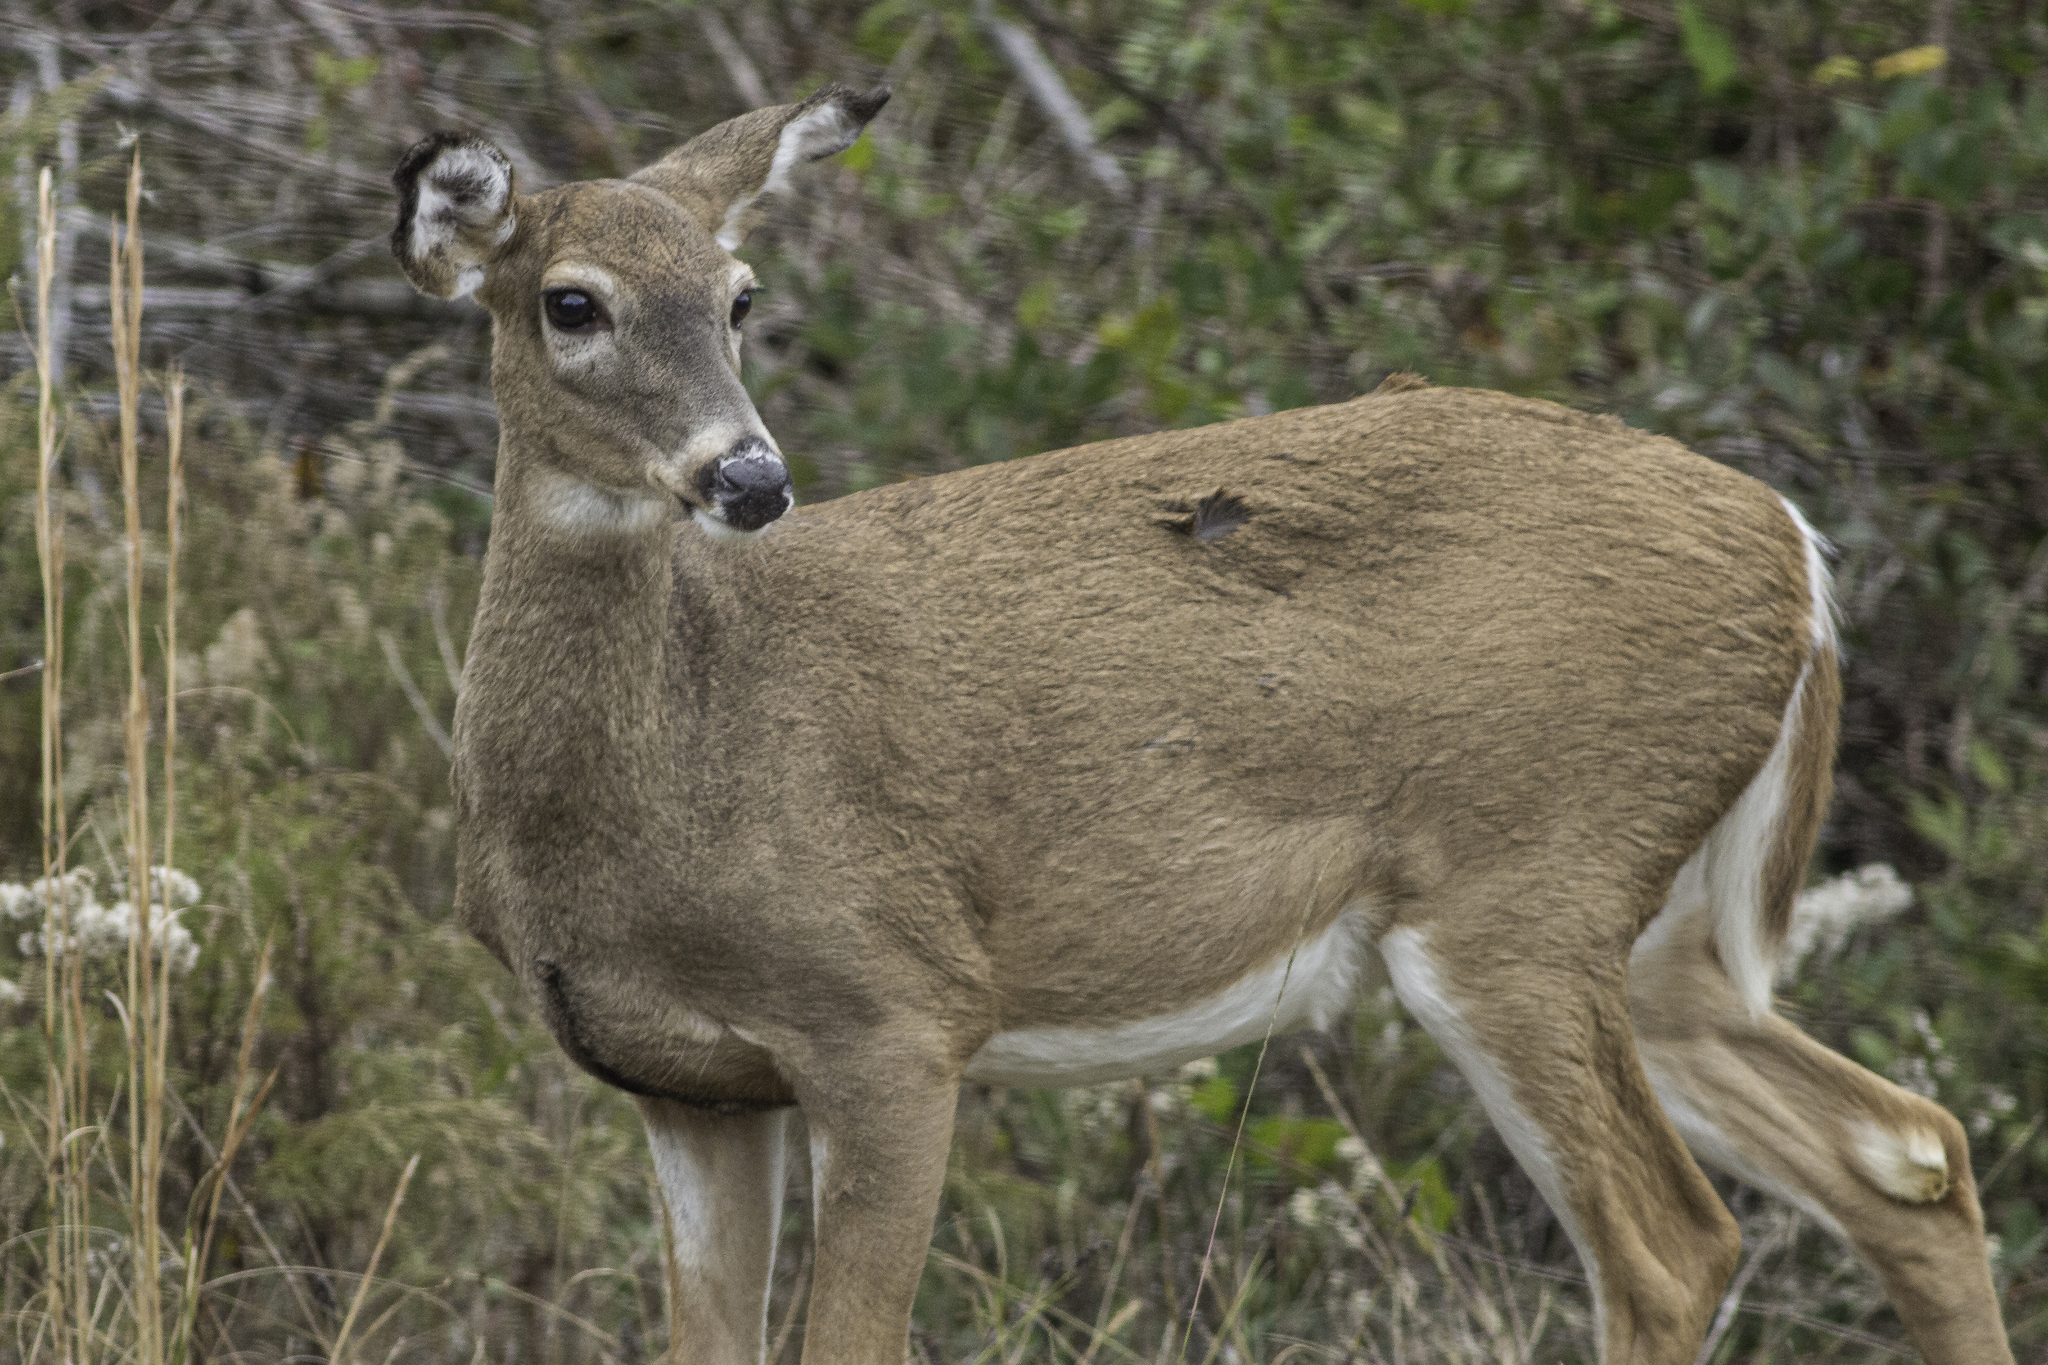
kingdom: Animalia
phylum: Chordata
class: Mammalia
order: Artiodactyla
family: Cervidae
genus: Odocoileus
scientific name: Odocoileus virginianus
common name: White-tailed deer
